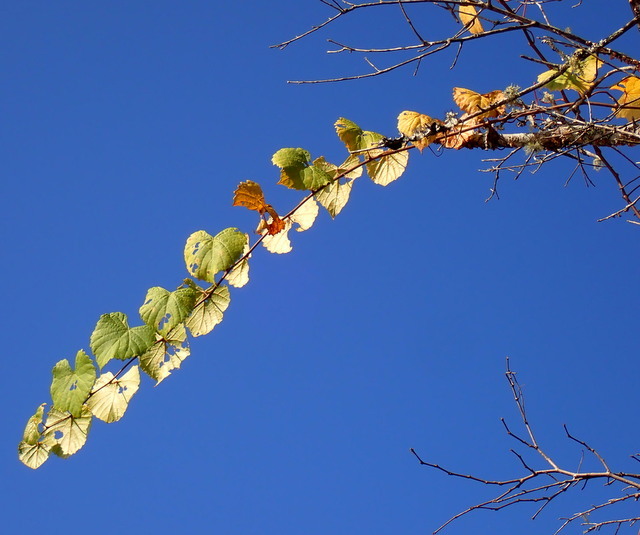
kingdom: Plantae
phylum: Tracheophyta
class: Magnoliopsida
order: Vitales
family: Vitaceae
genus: Vitis
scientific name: Vitis rotundifolia
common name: Muscadine grape
